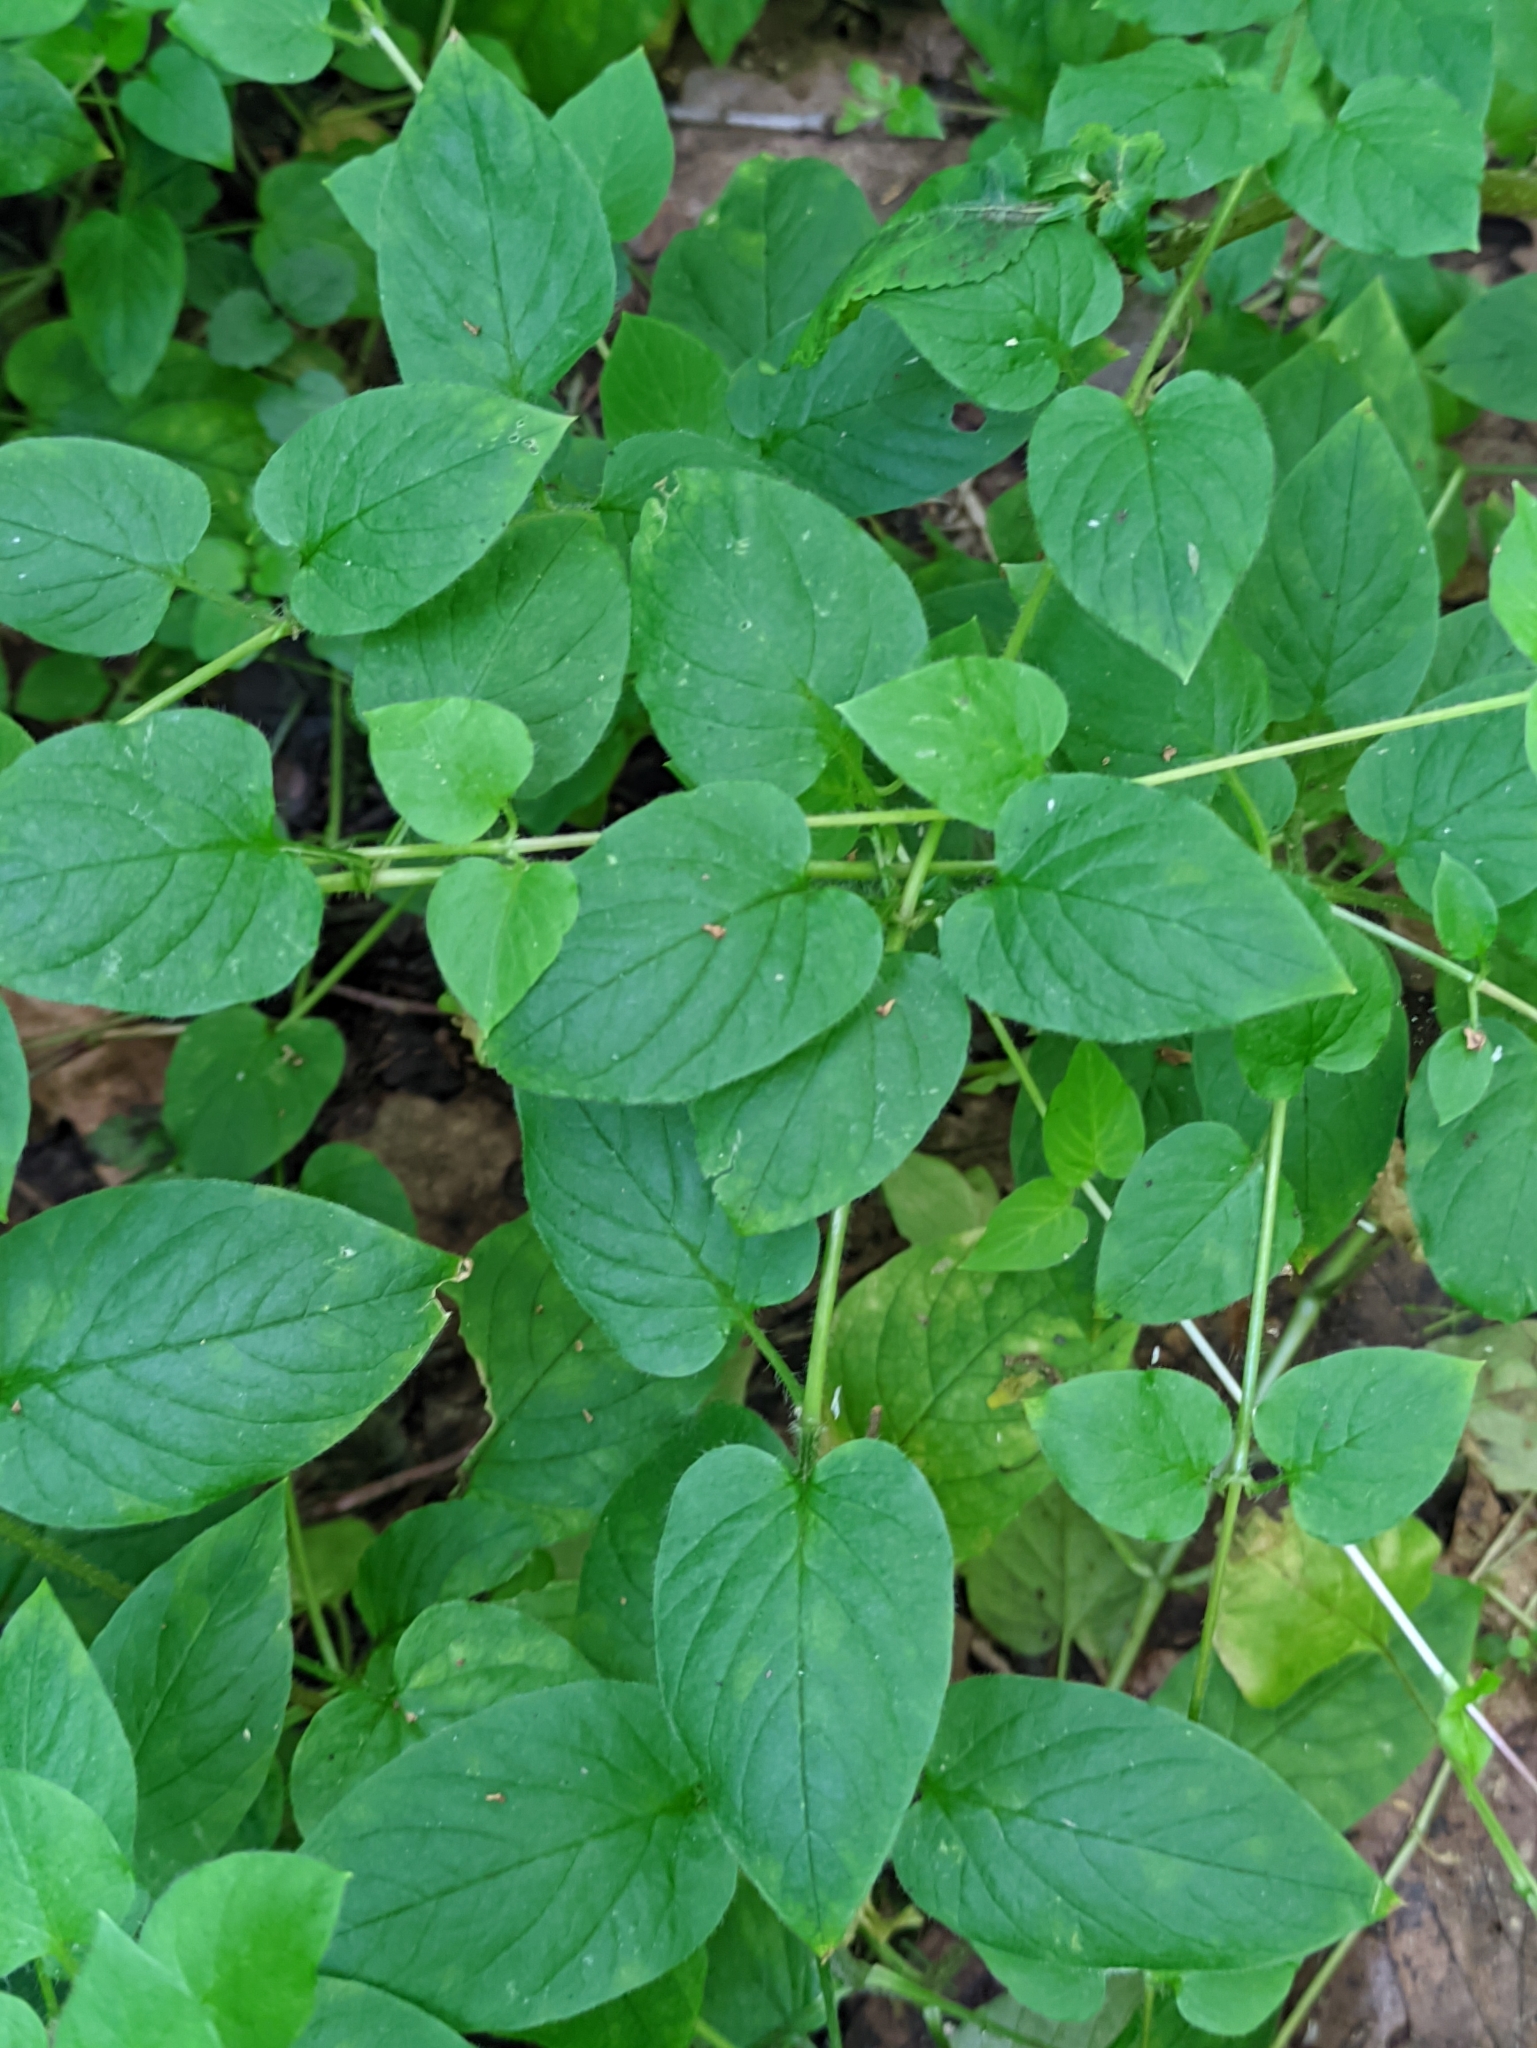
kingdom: Plantae
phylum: Tracheophyta
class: Magnoliopsida
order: Caryophyllales
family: Caryophyllaceae
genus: Stellaria
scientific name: Stellaria nemorum
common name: Wood stitchwort
